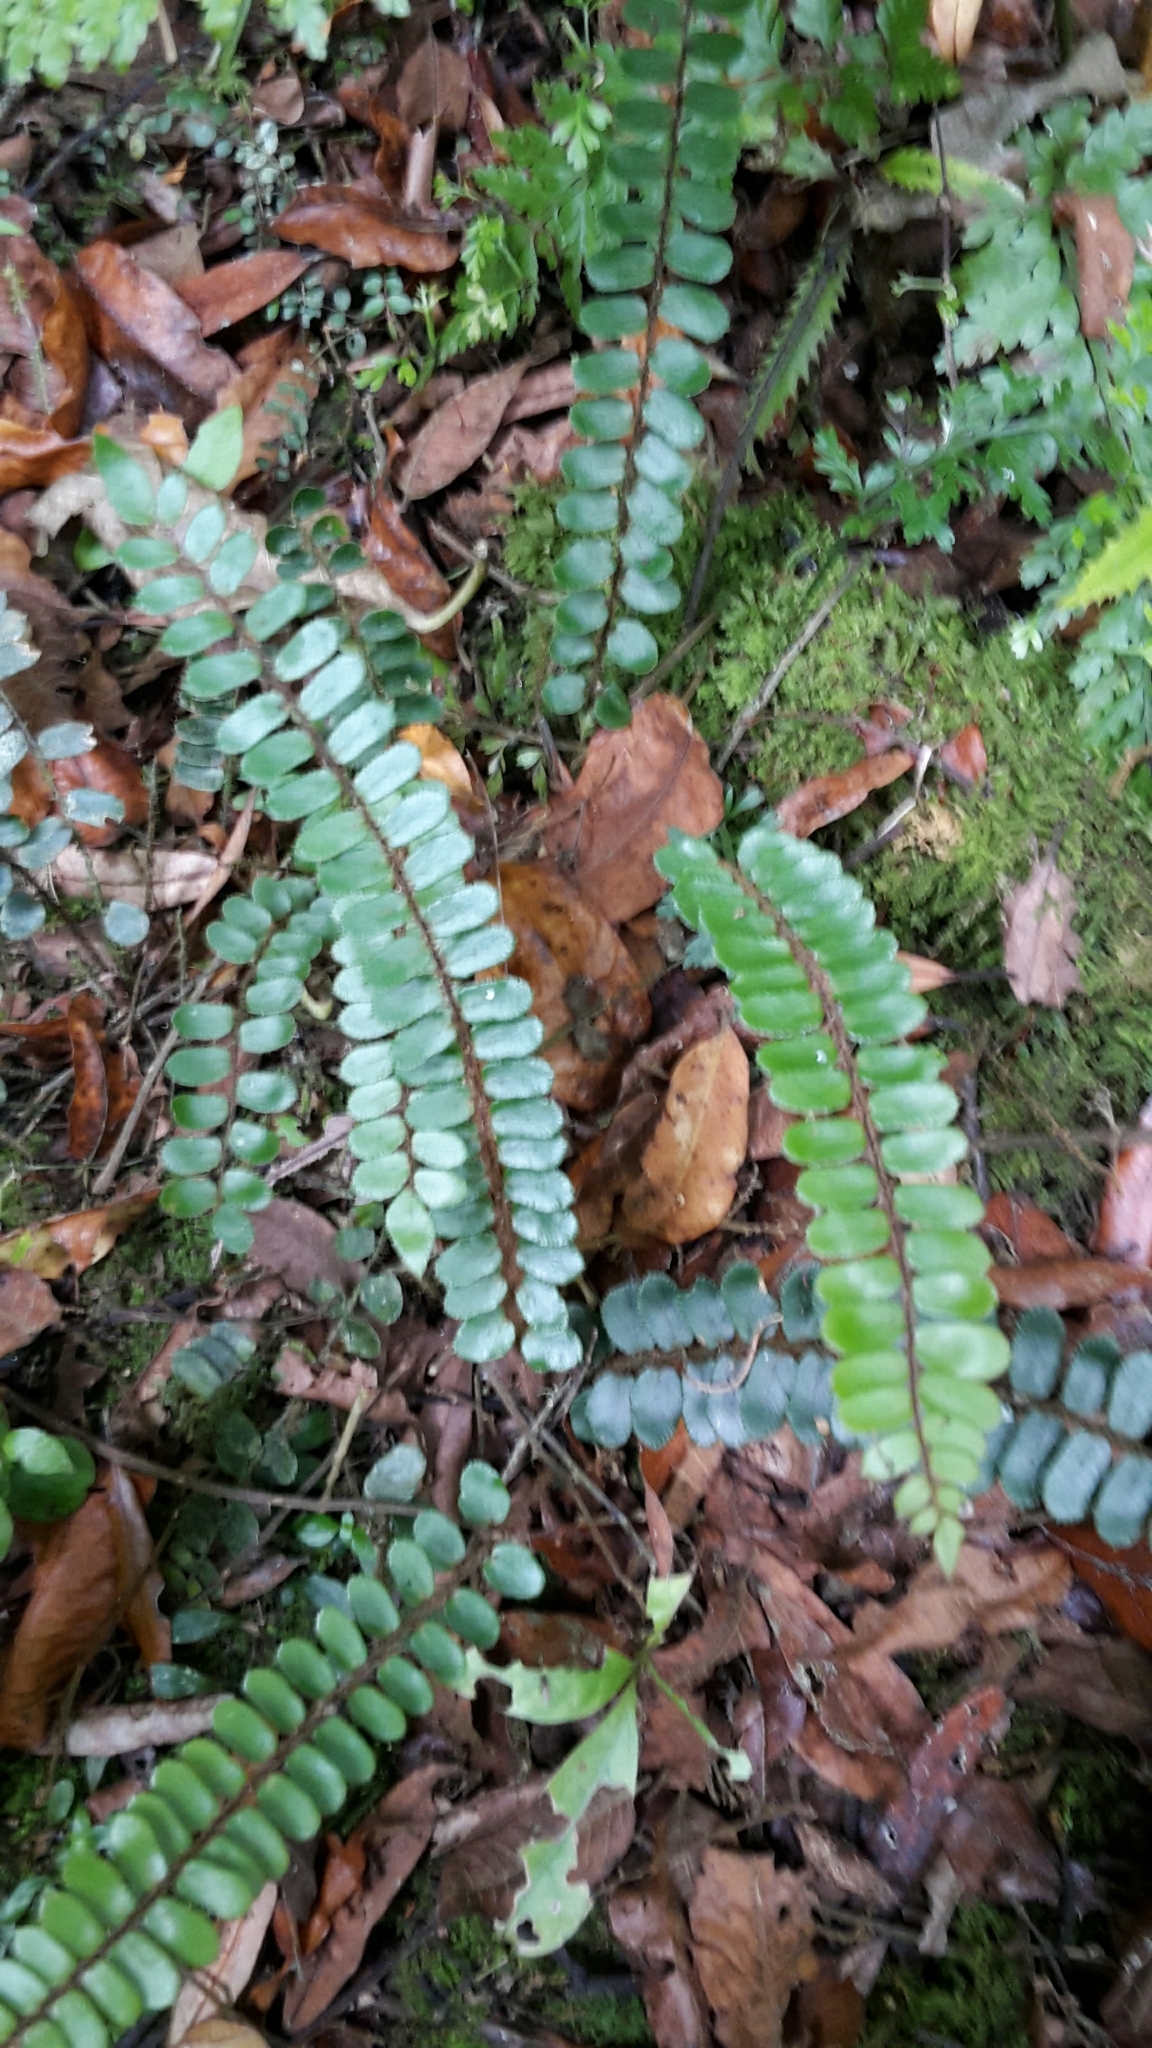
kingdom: Plantae
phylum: Tracheophyta
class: Polypodiopsida
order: Polypodiales
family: Pteridaceae
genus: Pellaea
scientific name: Pellaea rotundifolia
